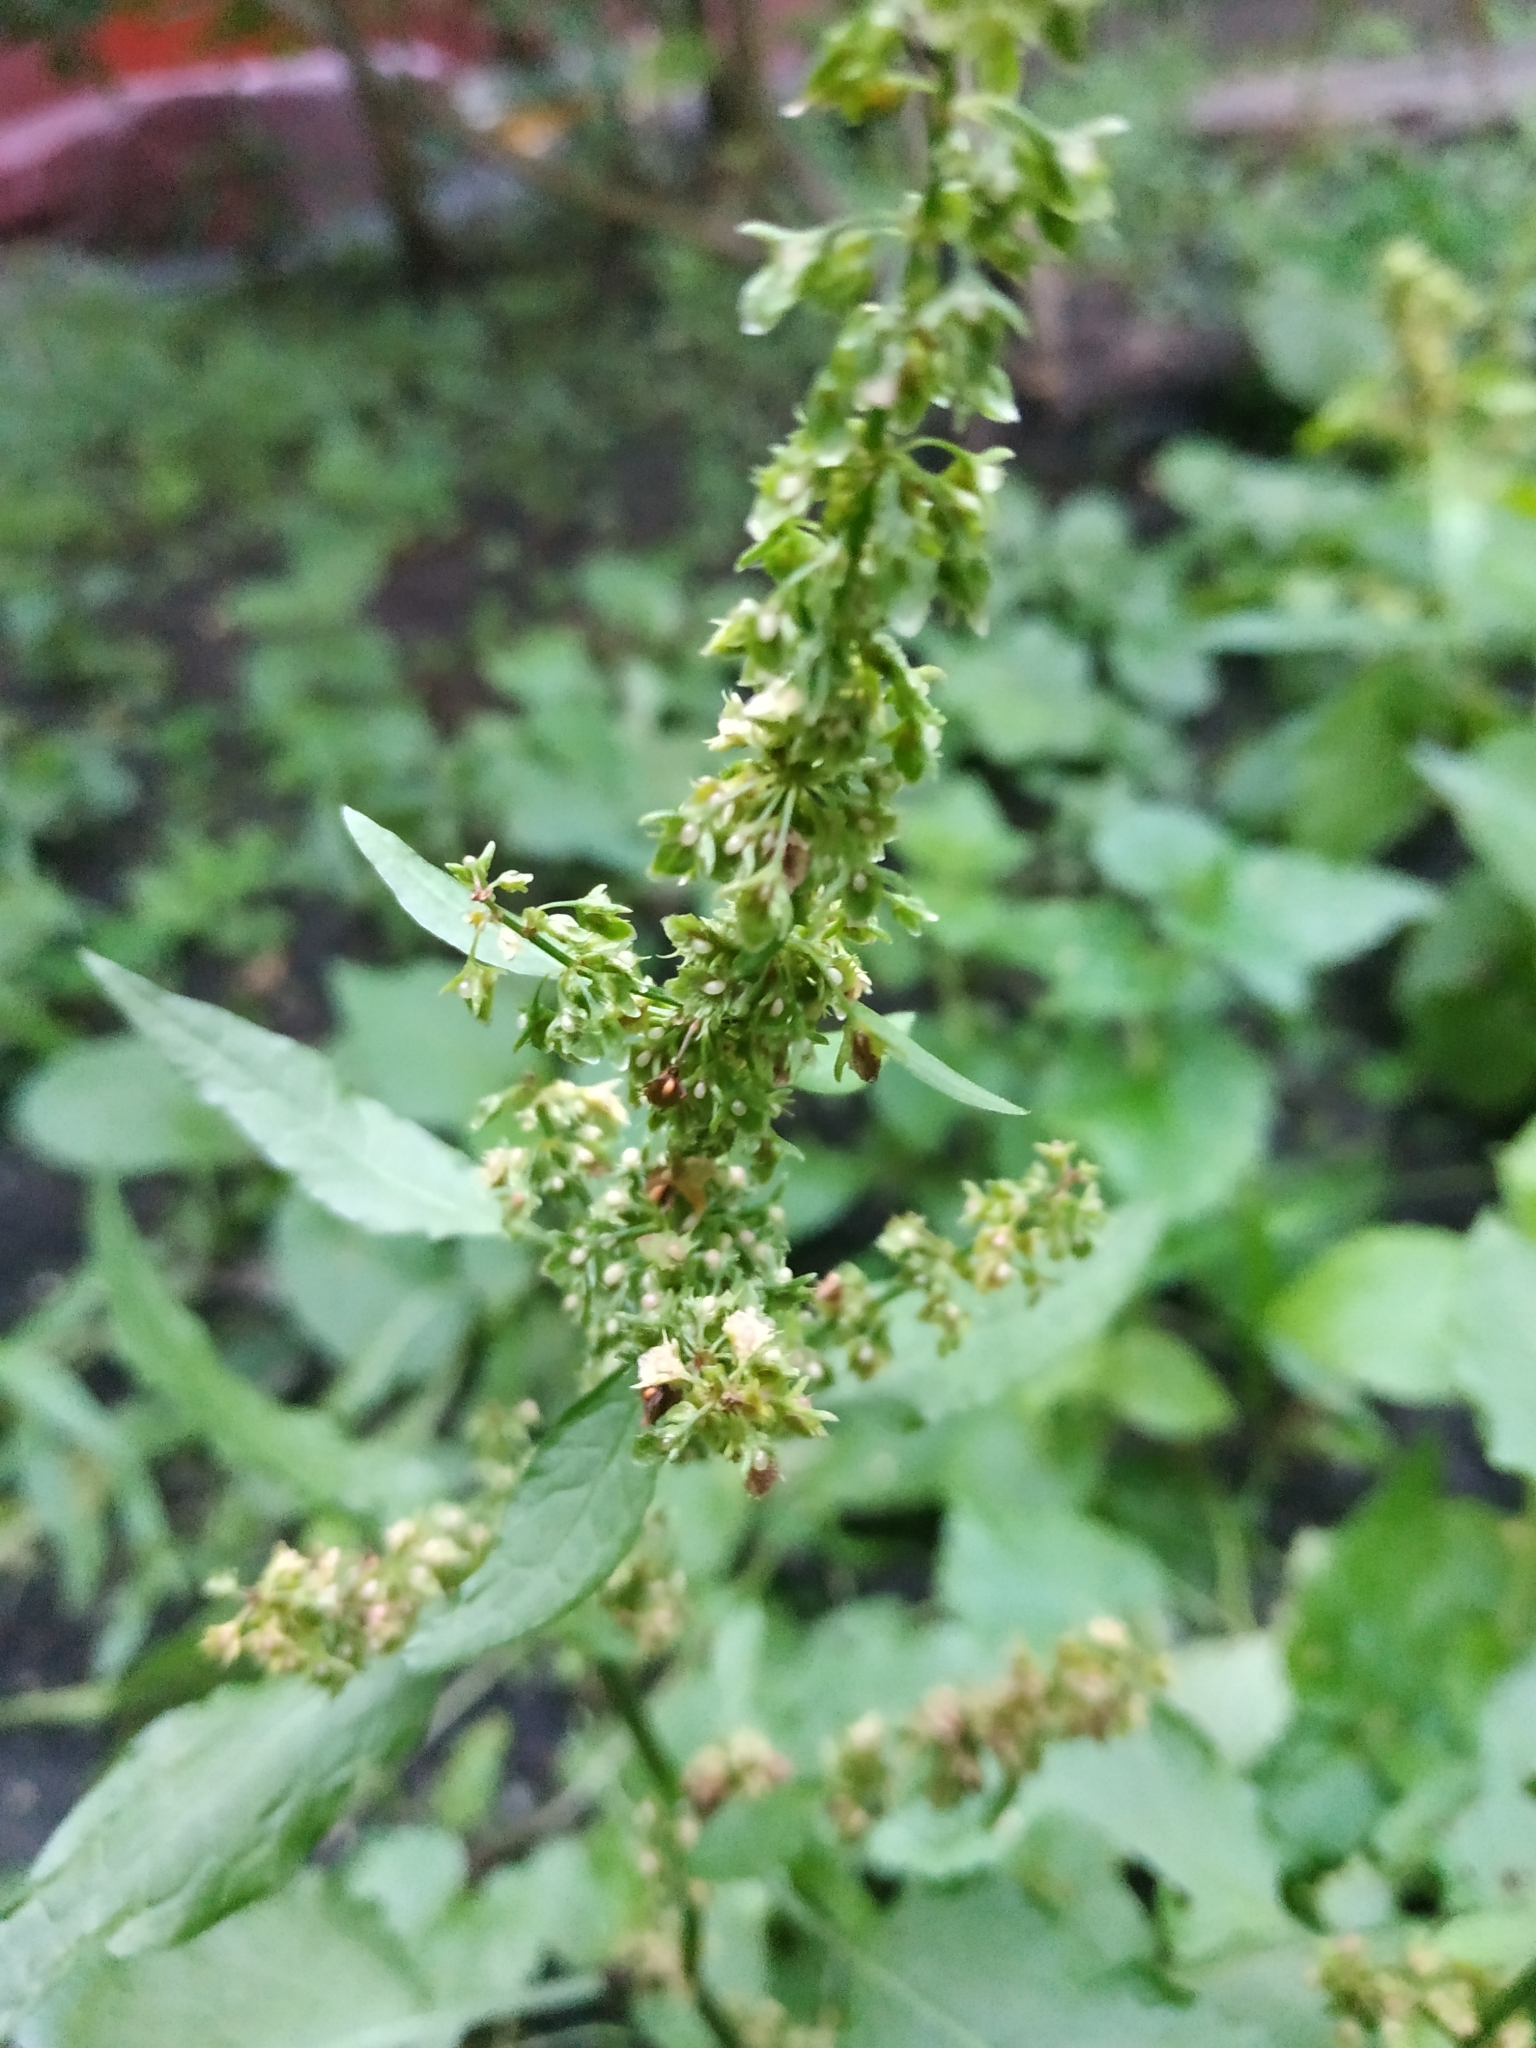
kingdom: Plantae
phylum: Tracheophyta
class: Magnoliopsida
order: Caryophyllales
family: Polygonaceae
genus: Rumex
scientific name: Rumex obtusifolius
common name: Bitter dock
